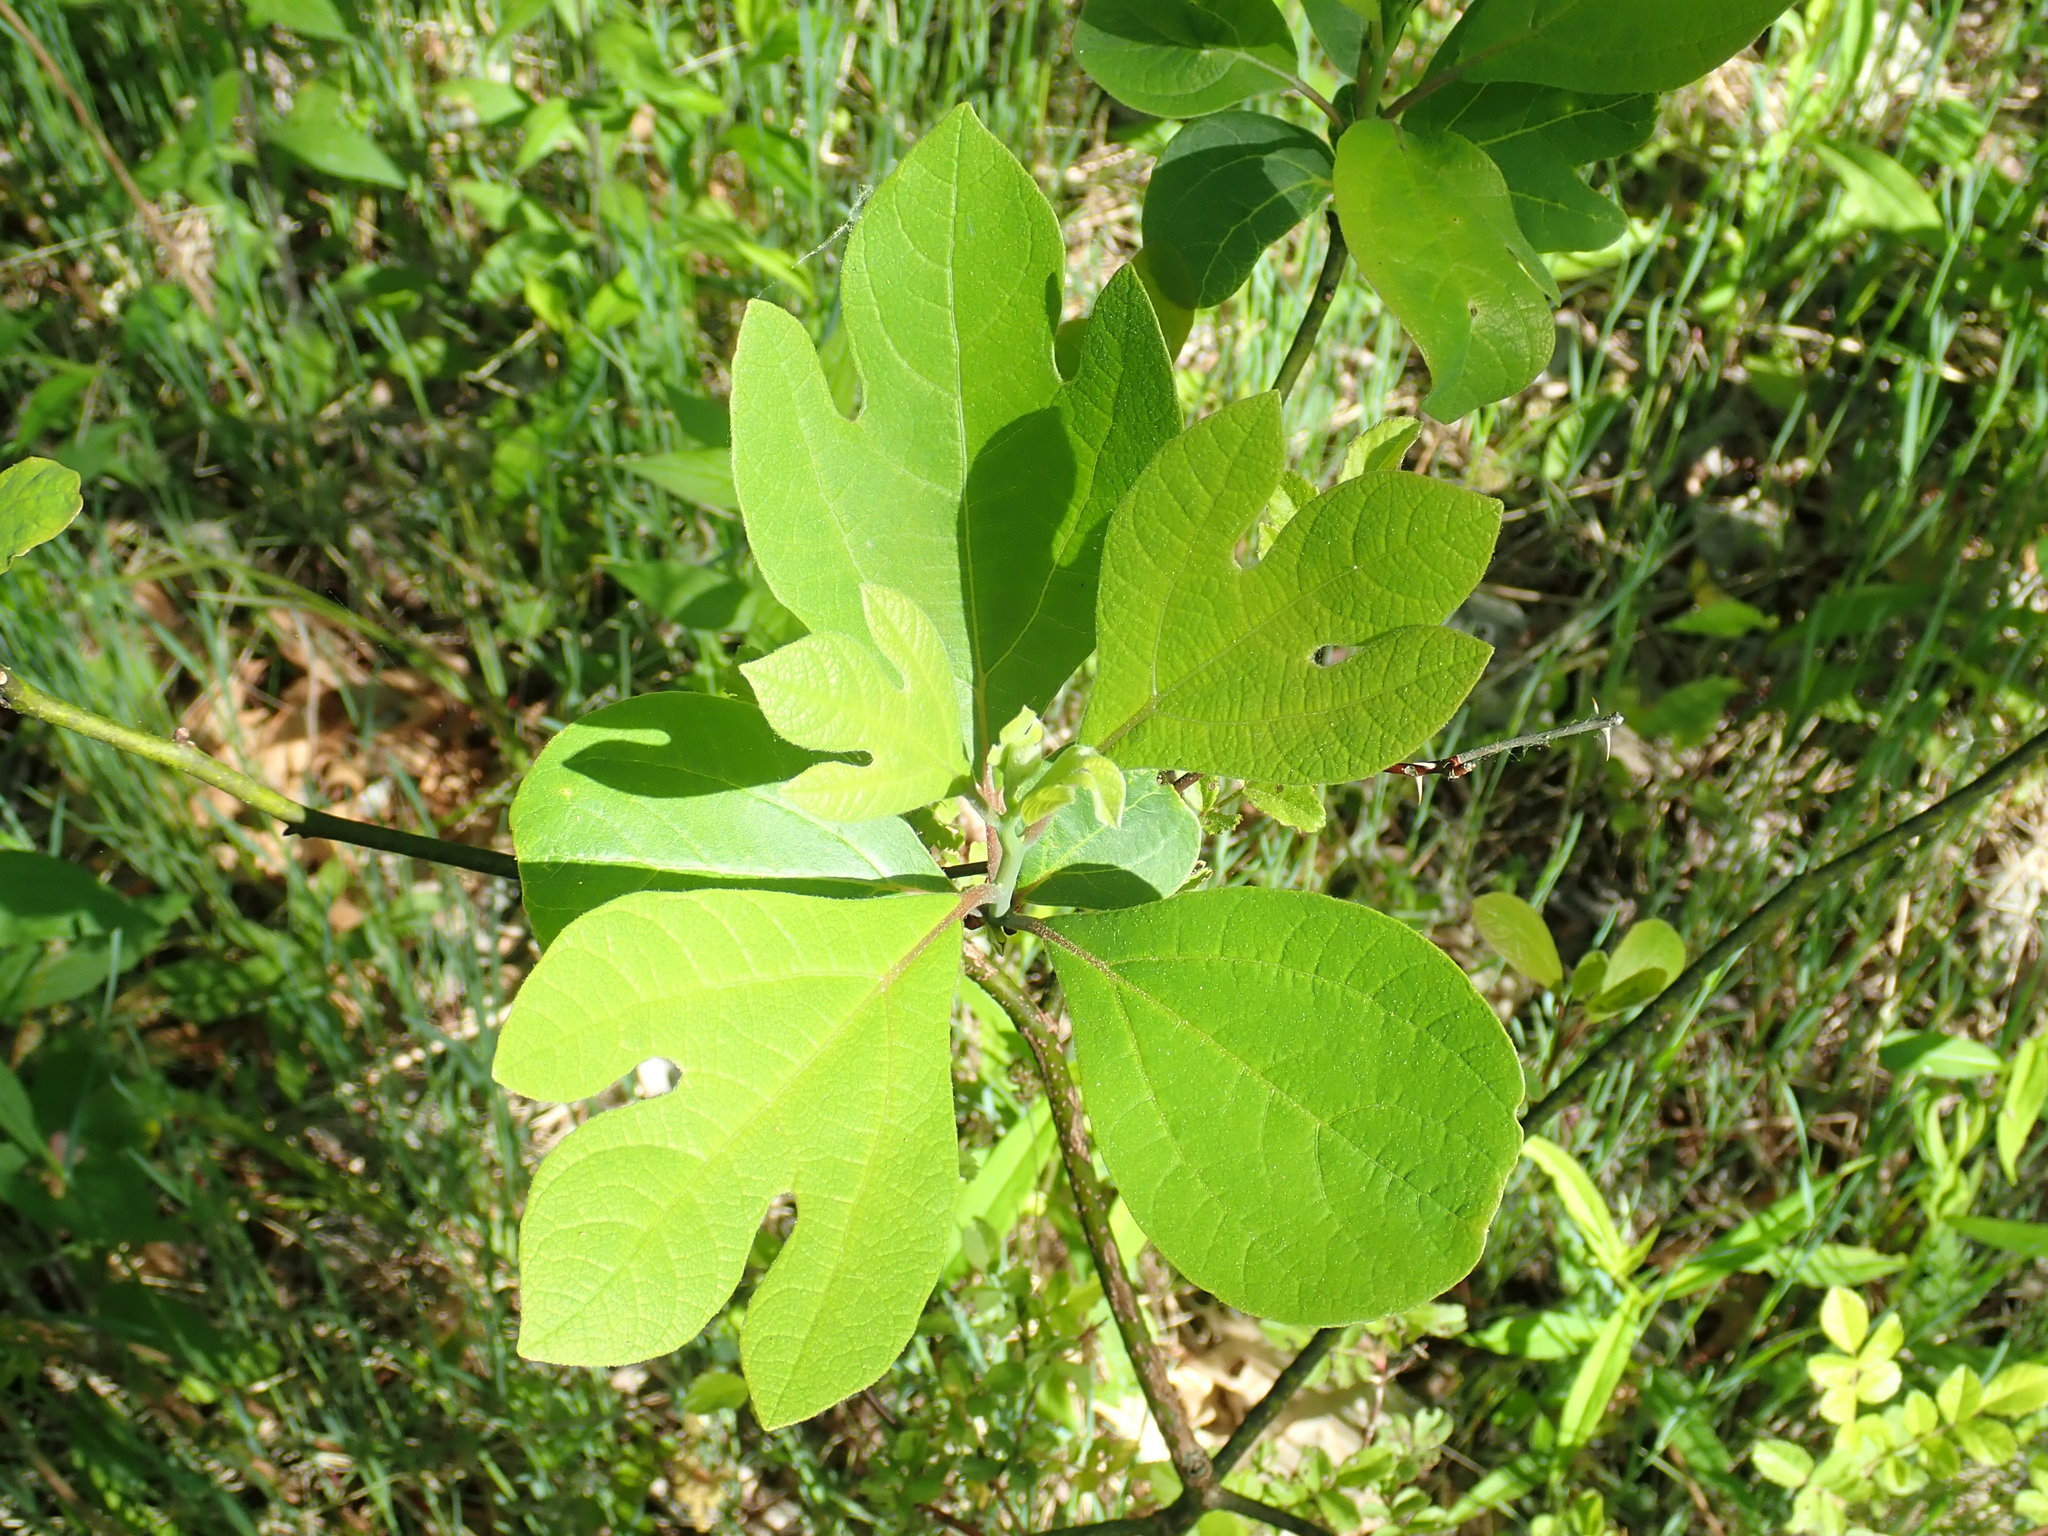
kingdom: Plantae
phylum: Tracheophyta
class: Magnoliopsida
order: Laurales
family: Lauraceae
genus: Sassafras
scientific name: Sassafras albidum
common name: Sassafras
